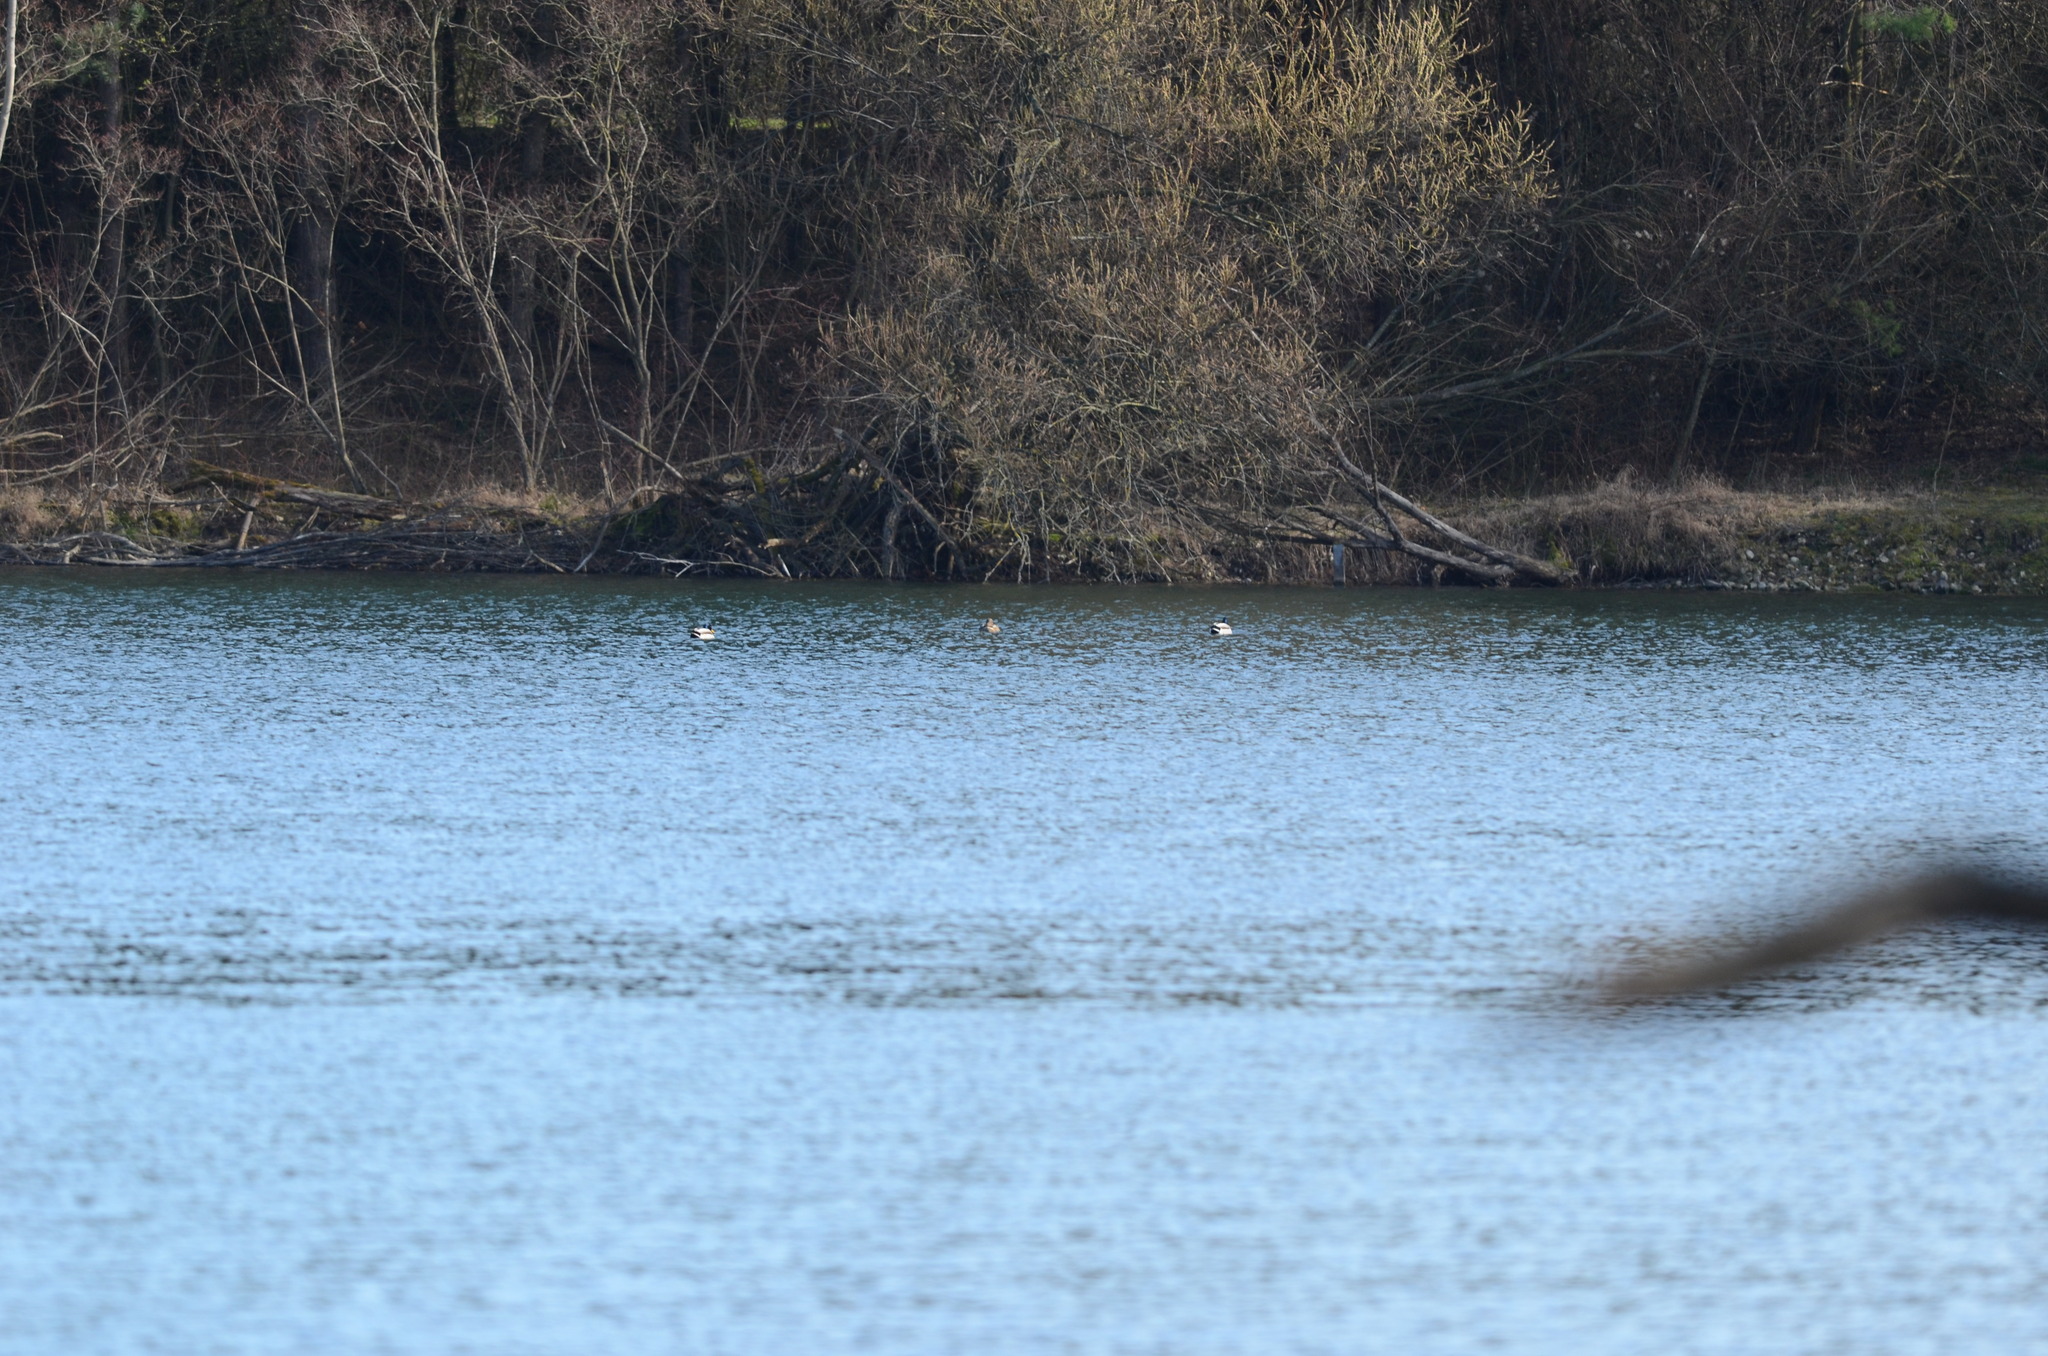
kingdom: Animalia
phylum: Chordata
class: Aves
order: Anseriformes
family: Anatidae
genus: Anas
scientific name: Anas platyrhynchos
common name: Mallard
